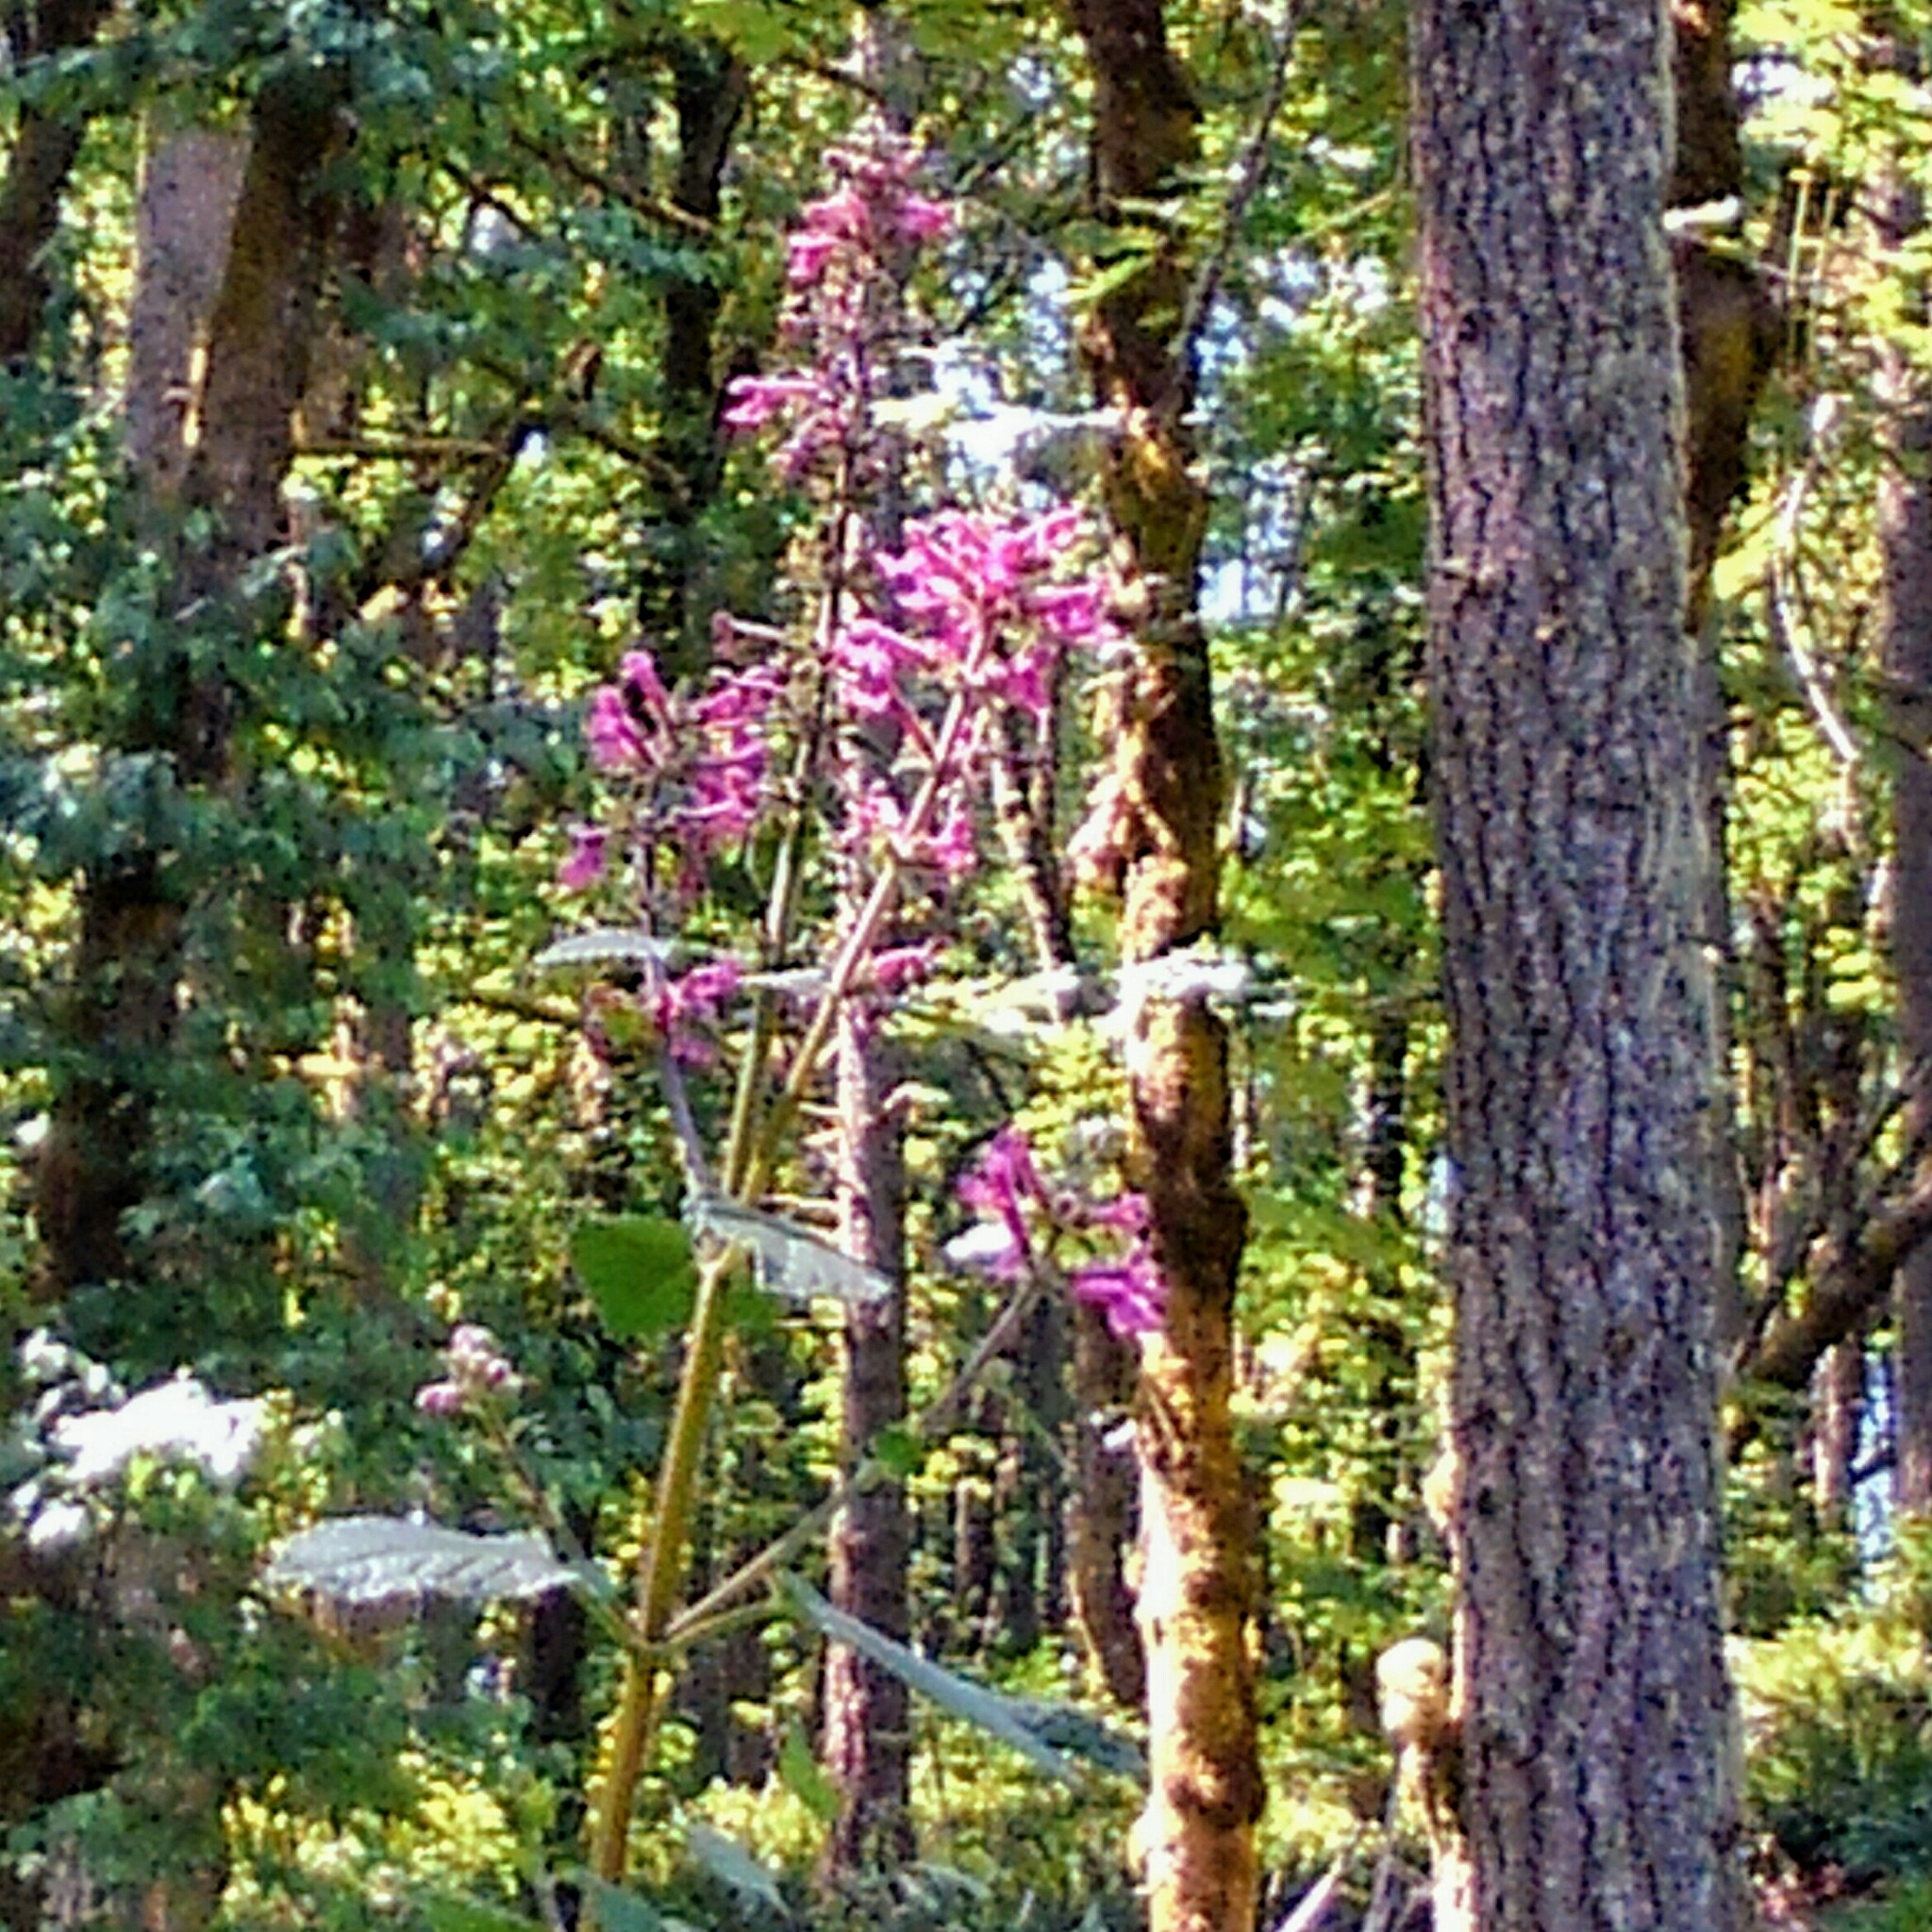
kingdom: Plantae
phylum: Tracheophyta
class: Magnoliopsida
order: Lamiales
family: Lamiaceae
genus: Stachys
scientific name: Stachys chamissonis
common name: Coastal hedge-nettle
